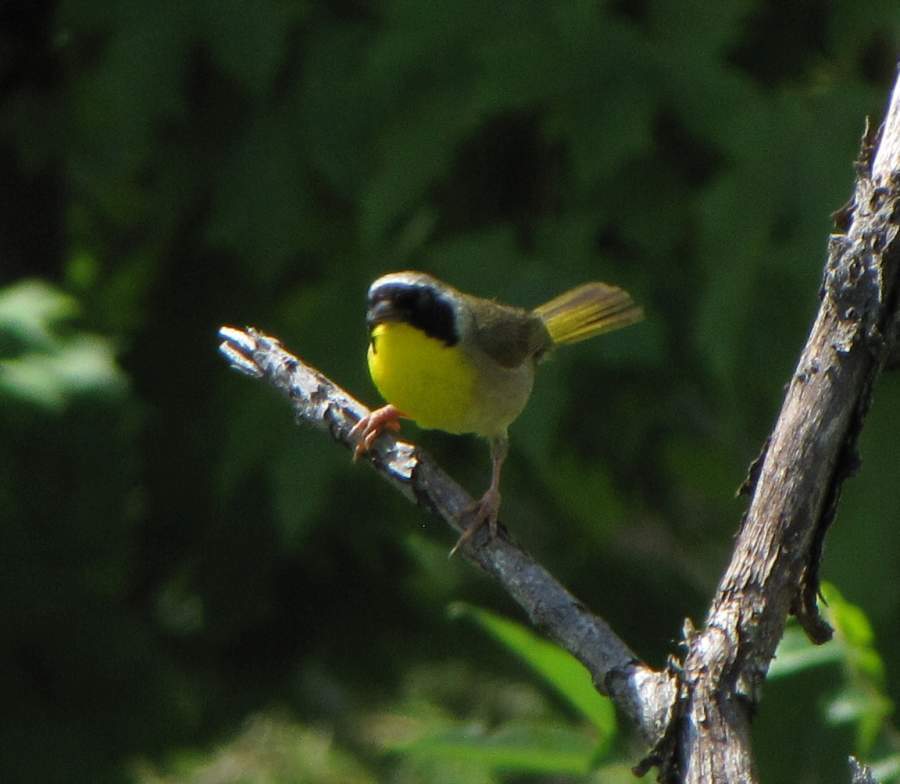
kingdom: Animalia
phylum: Chordata
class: Aves
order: Passeriformes
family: Parulidae
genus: Geothlypis
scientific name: Geothlypis trichas
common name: Common yellowthroat
